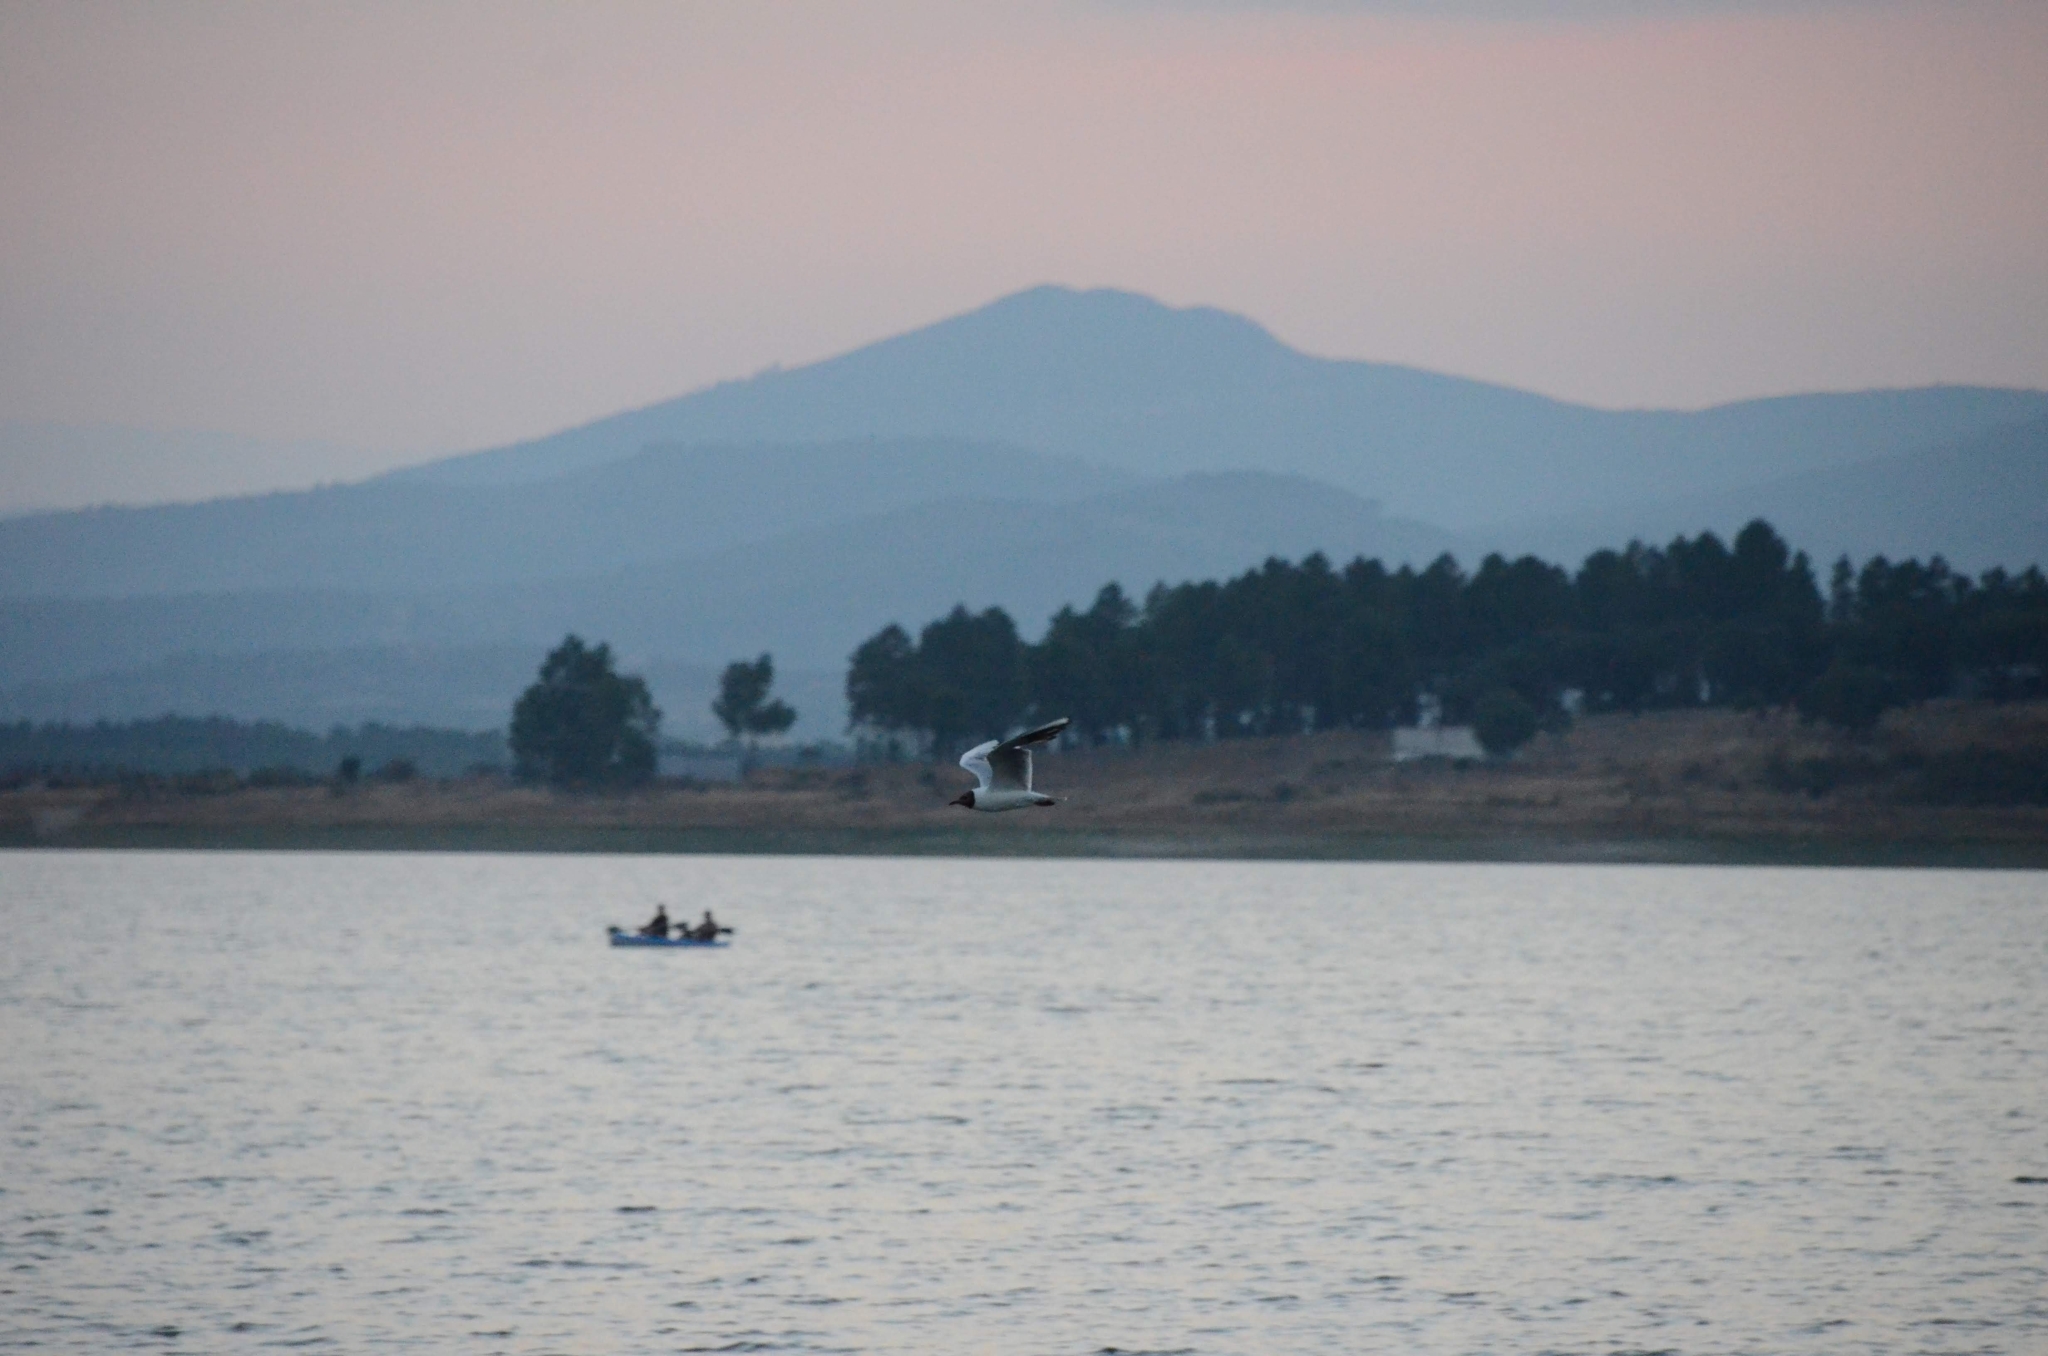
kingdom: Animalia
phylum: Chordata
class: Aves
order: Charadriiformes
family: Laridae
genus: Chroicocephalus
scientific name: Chroicocephalus ridibundus
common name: Black-headed gull
